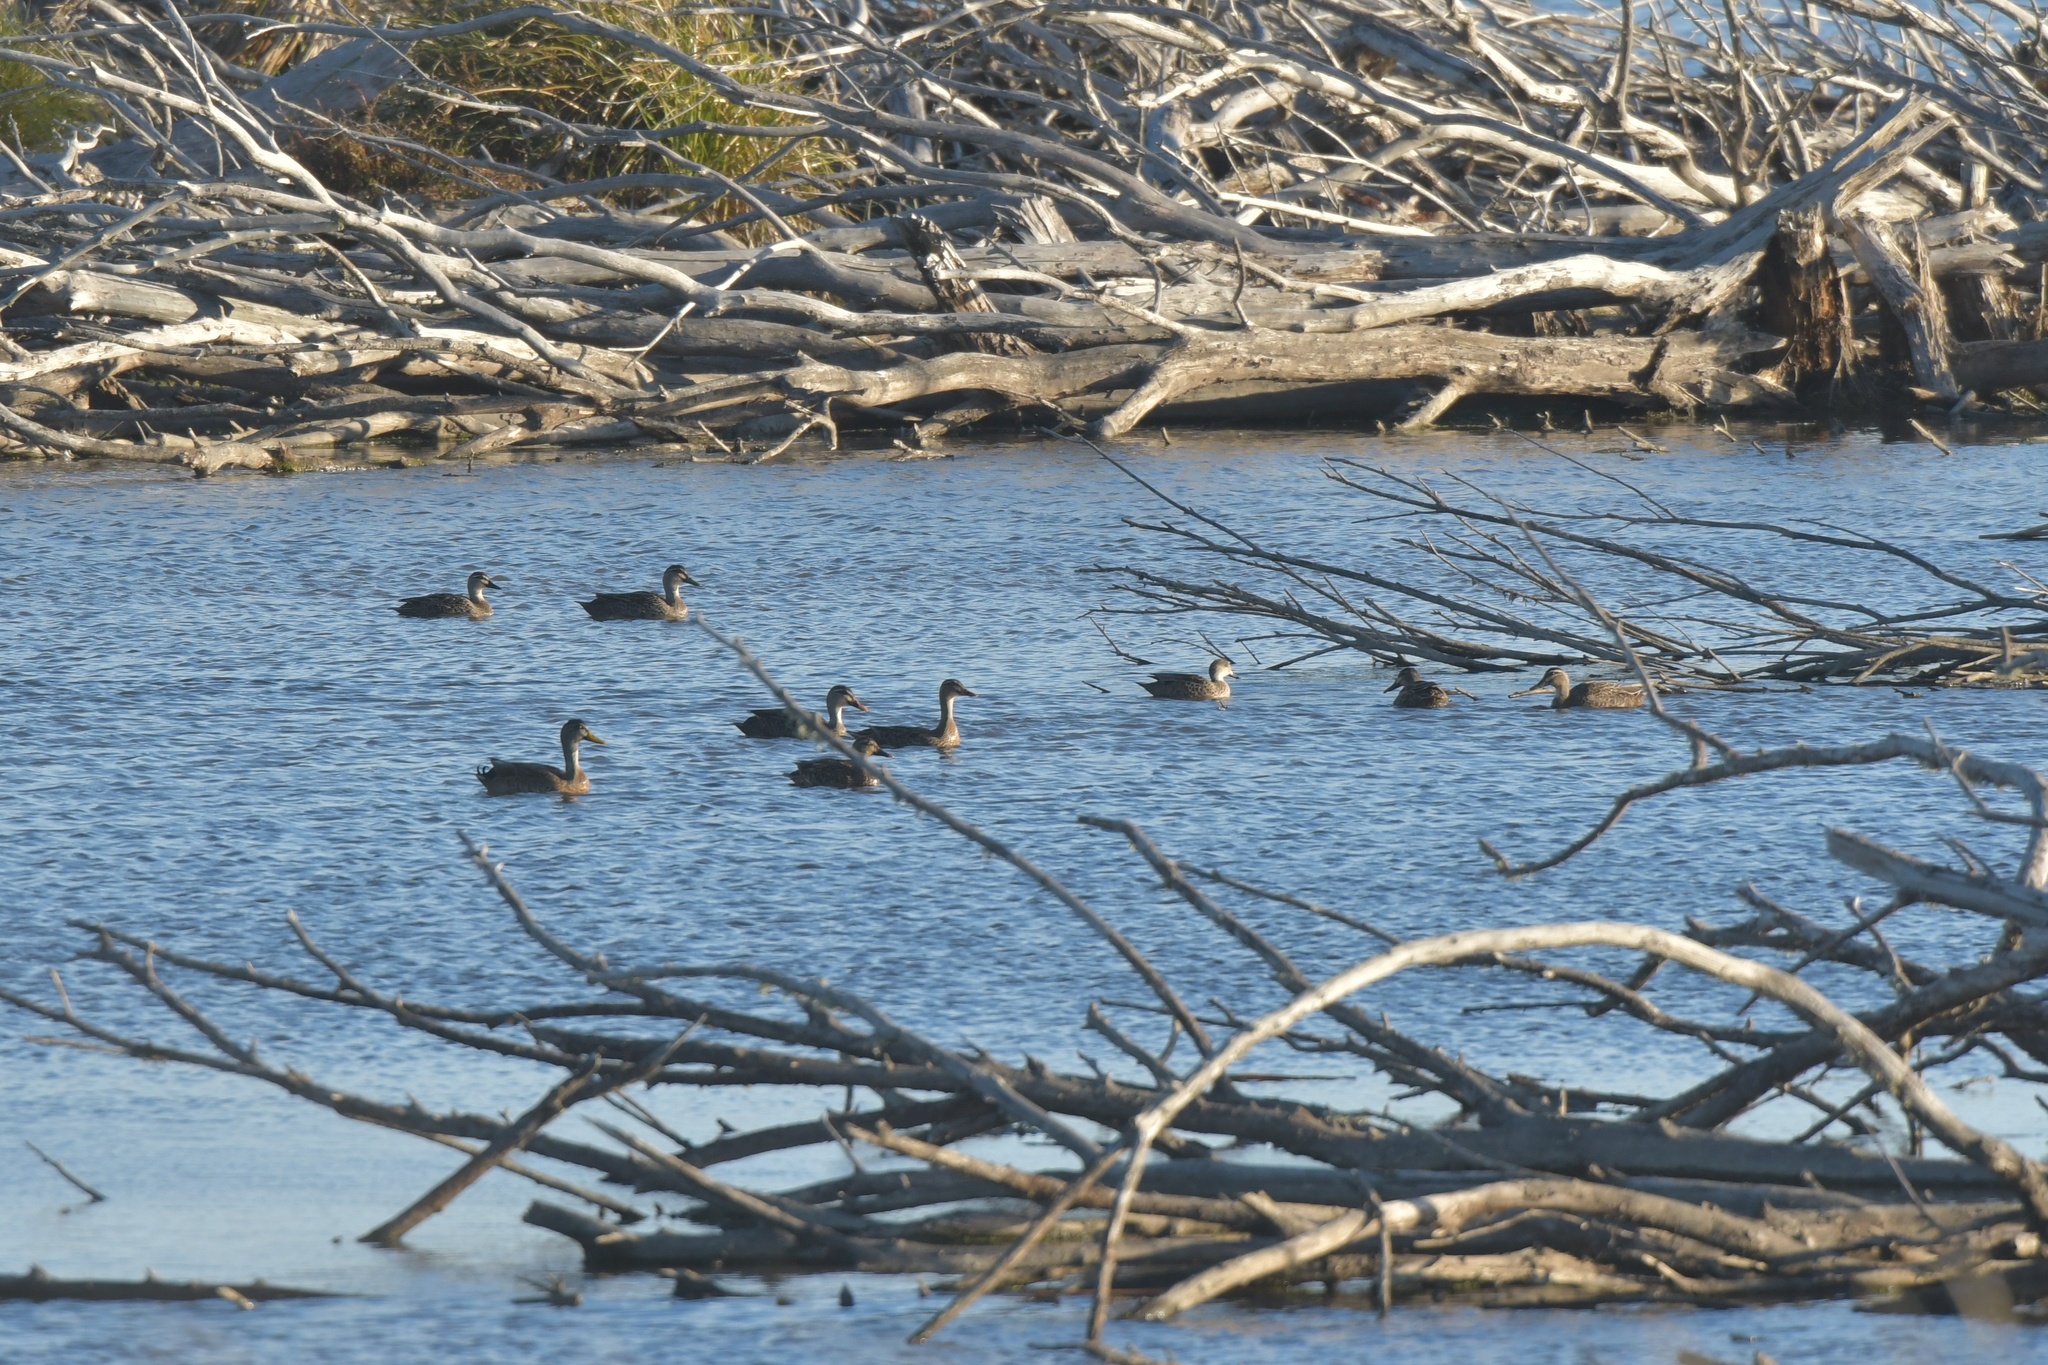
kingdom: Animalia
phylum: Chordata
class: Aves
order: Anseriformes
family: Anatidae
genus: Anas
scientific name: Anas
